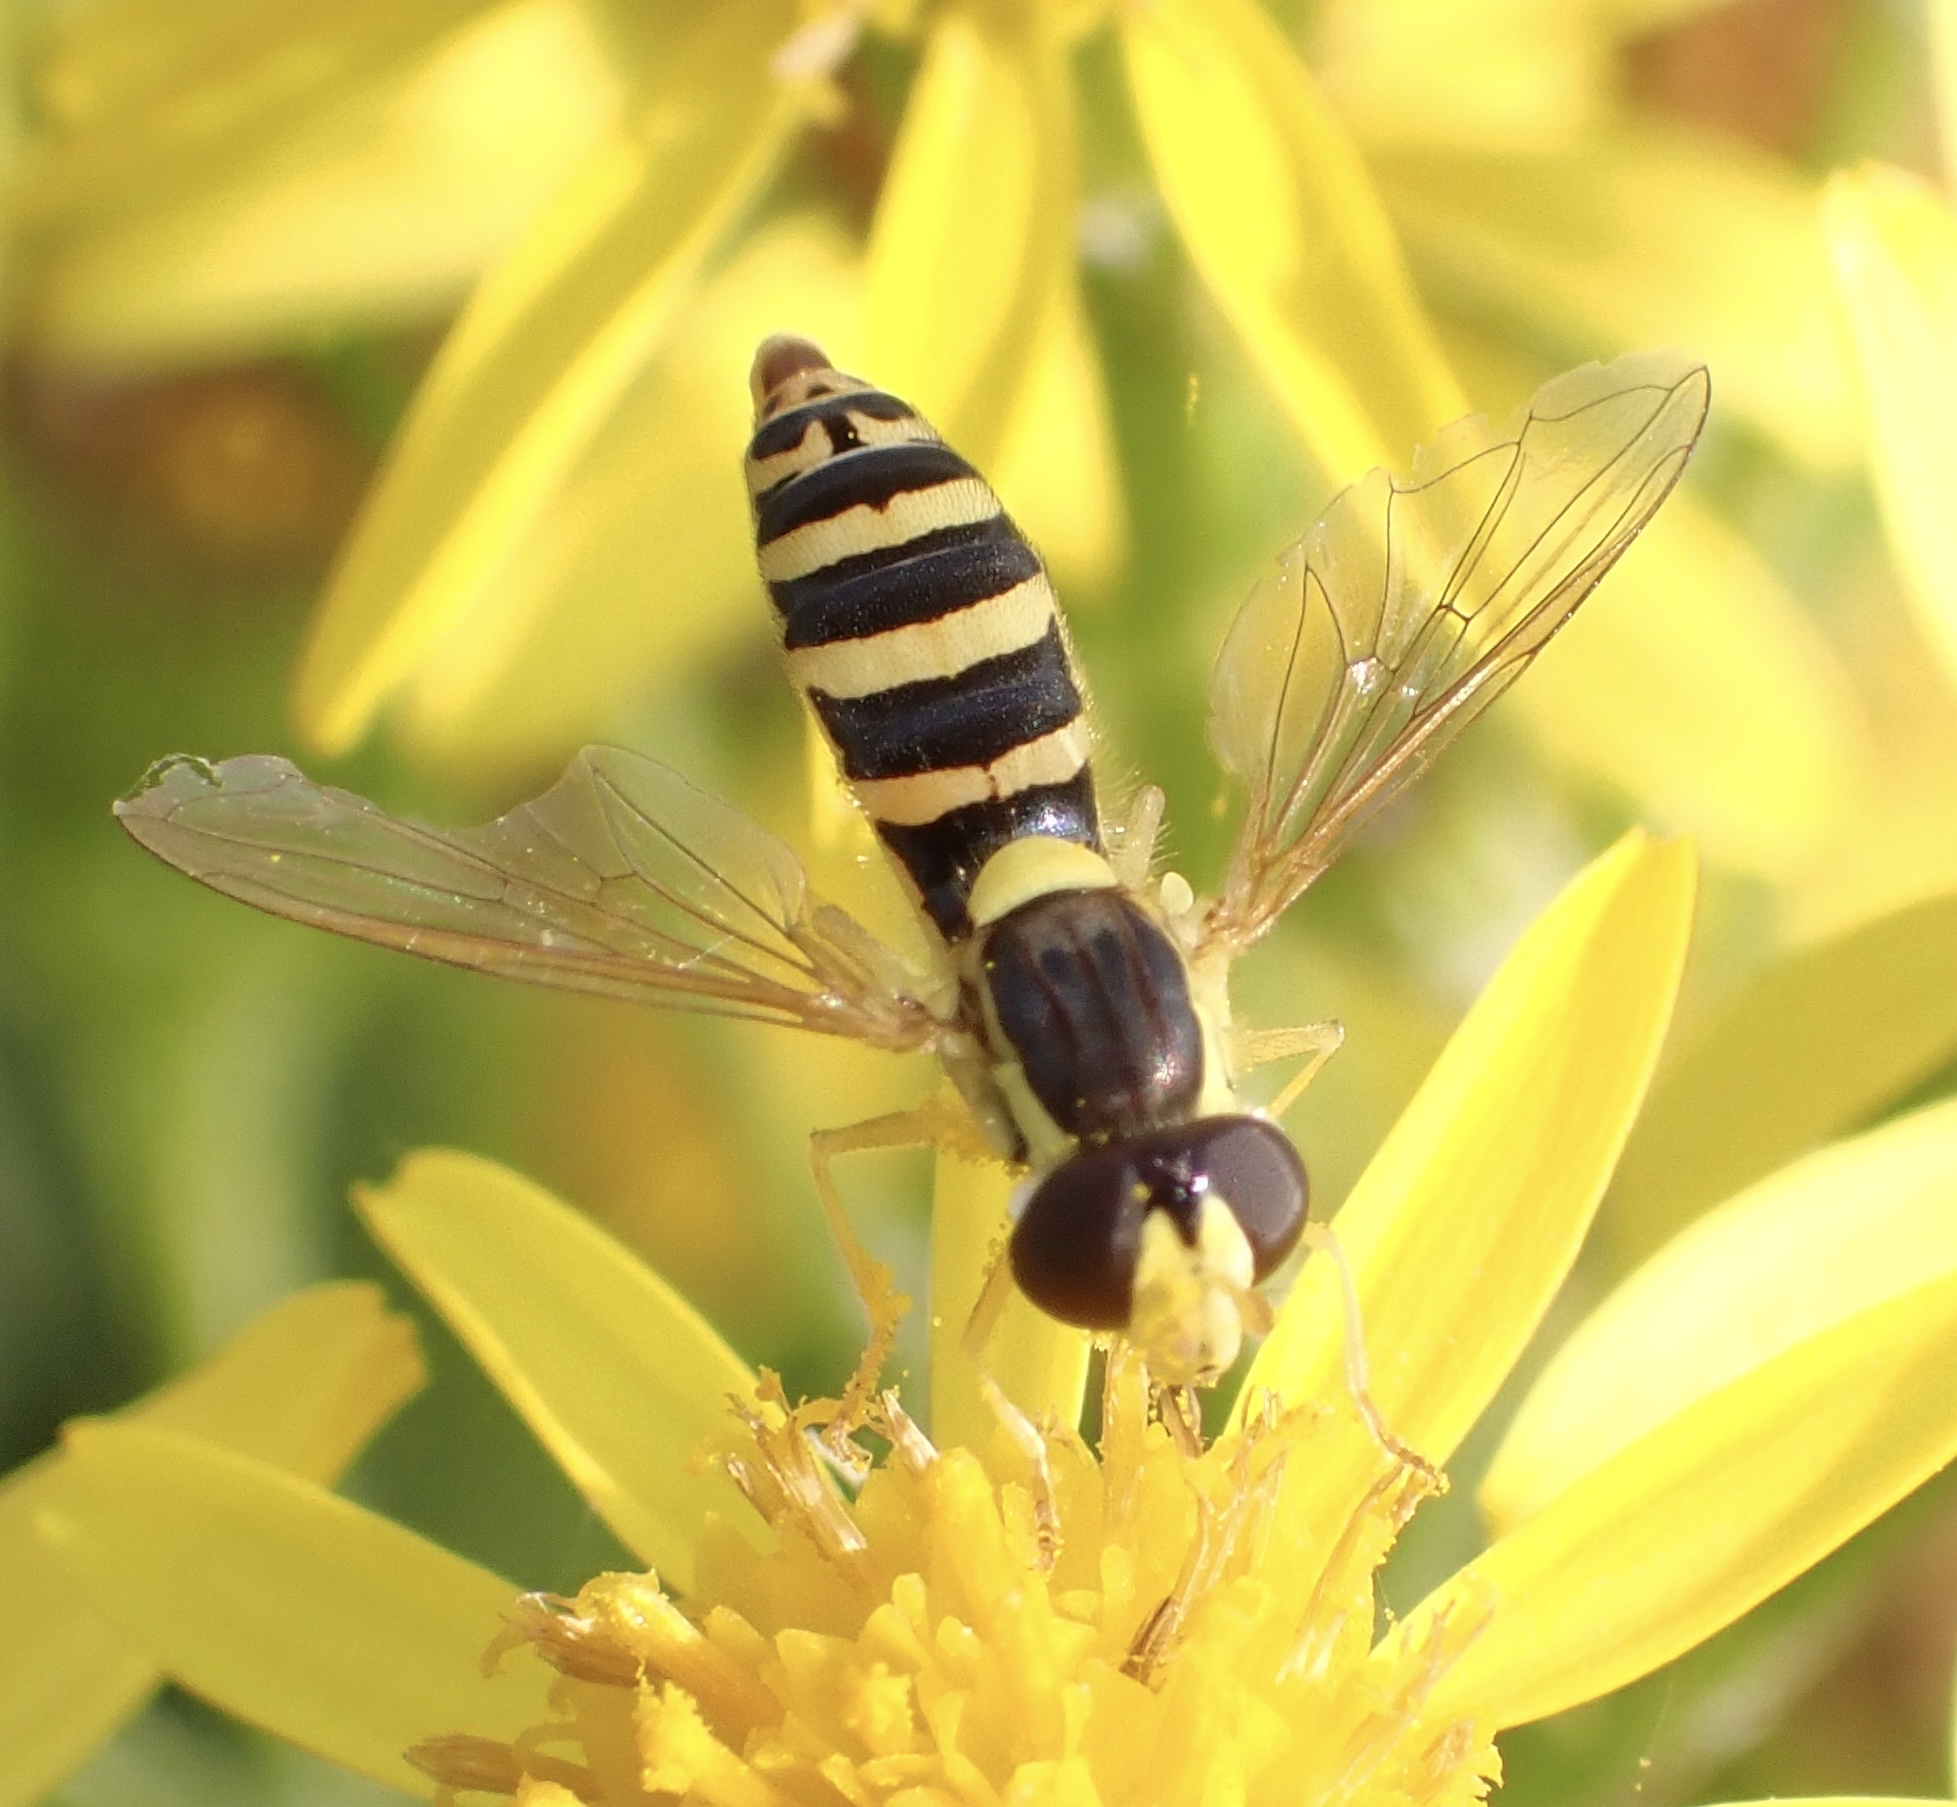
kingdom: Animalia
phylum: Arthropoda
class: Insecta
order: Diptera
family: Syrphidae
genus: Sphaerophoria
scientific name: Sphaerophoria
